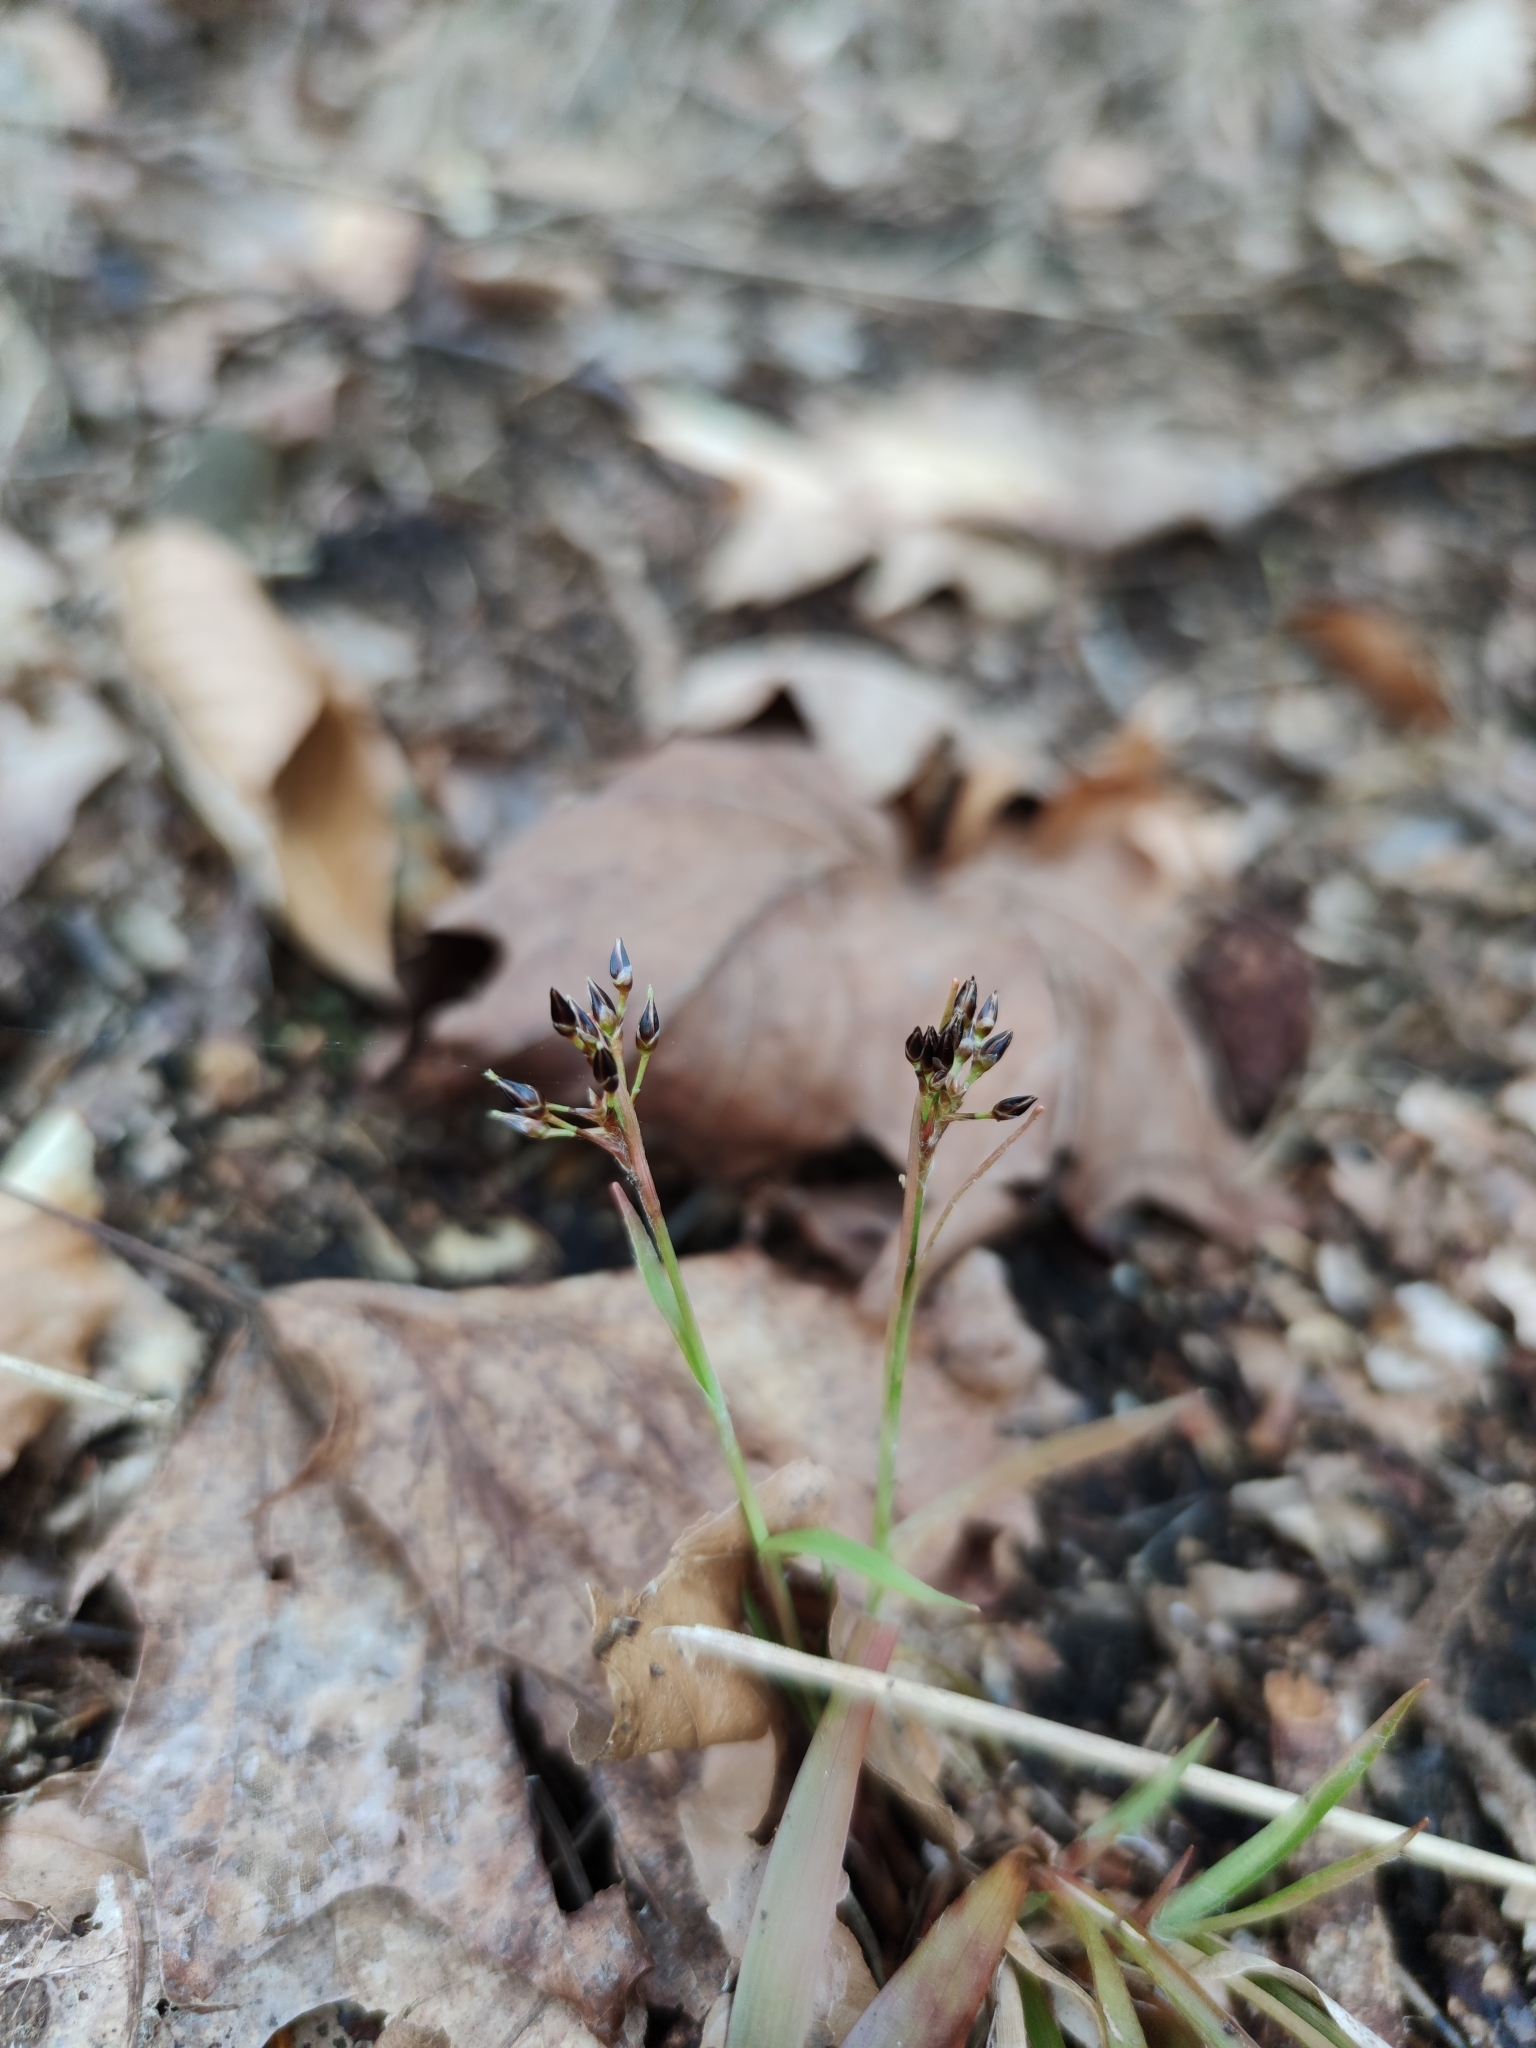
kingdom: Plantae
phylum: Tracheophyta
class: Liliopsida
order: Poales
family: Juncaceae
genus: Luzula
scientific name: Luzula pilosa
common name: Hairy wood-rush
